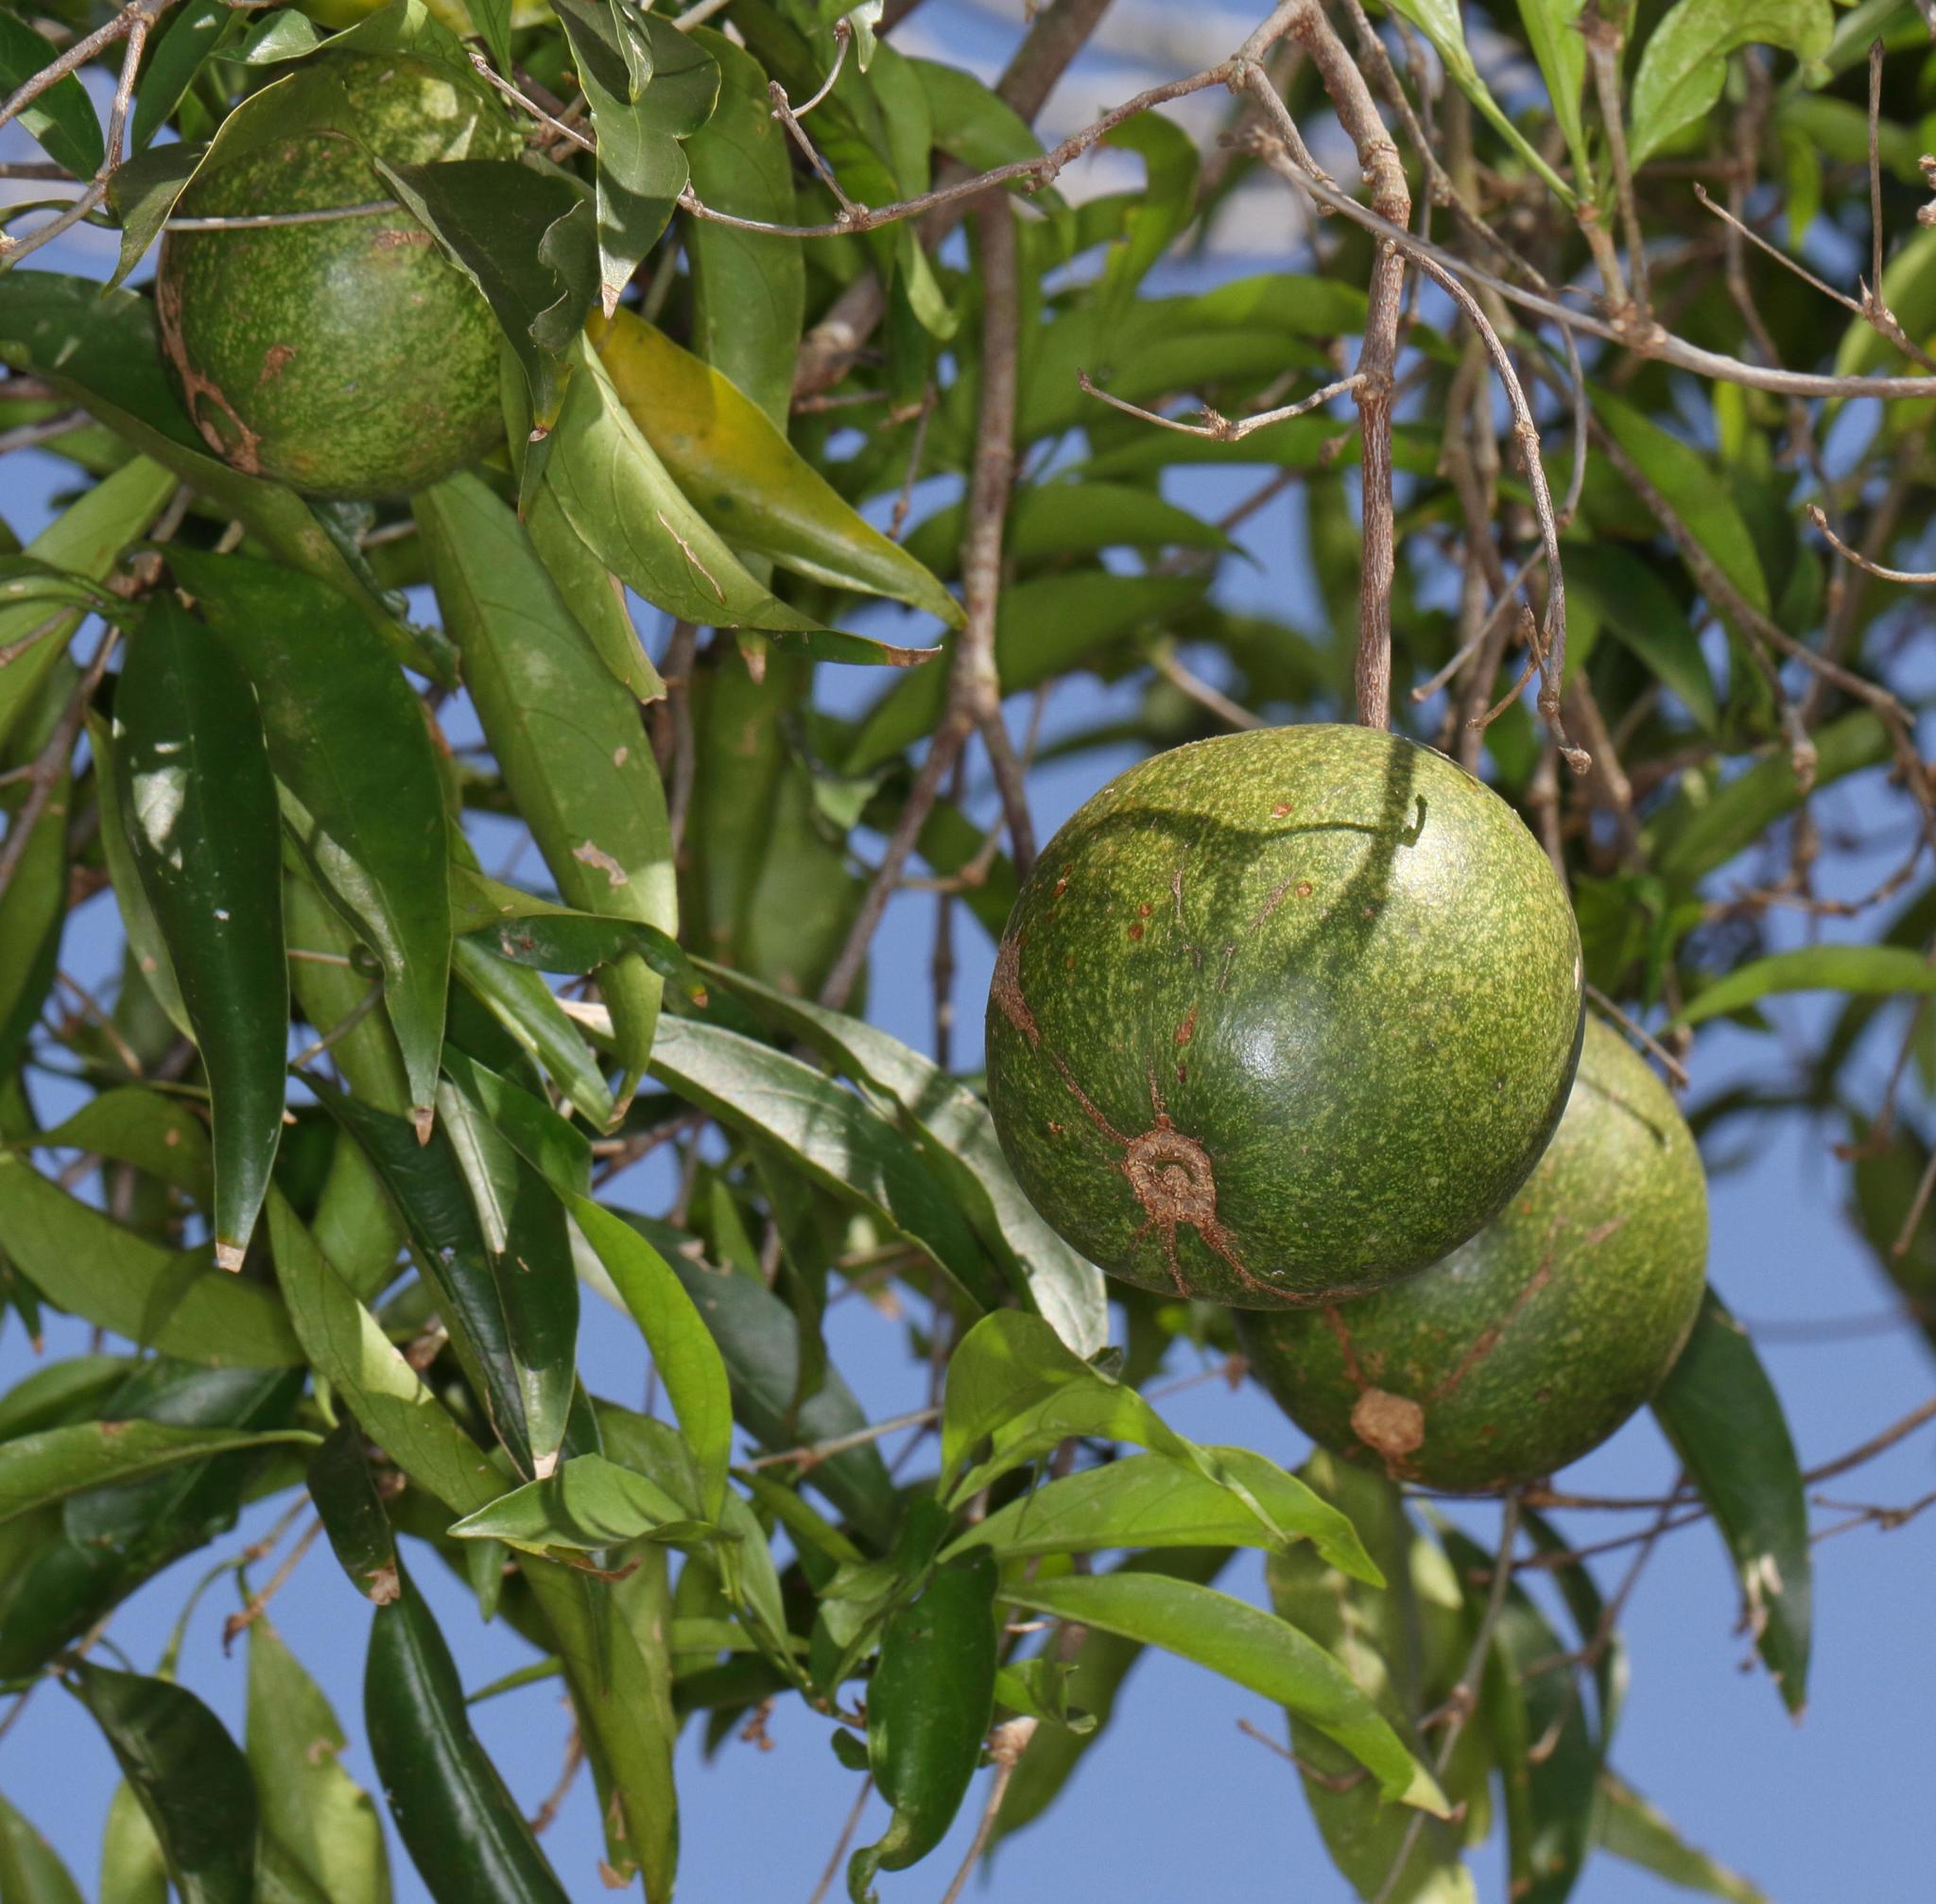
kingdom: Plantae
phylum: Tracheophyta
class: Magnoliopsida
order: Gentianales
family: Rubiaceae
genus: Rothmannia
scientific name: Rothmannia fischeri
